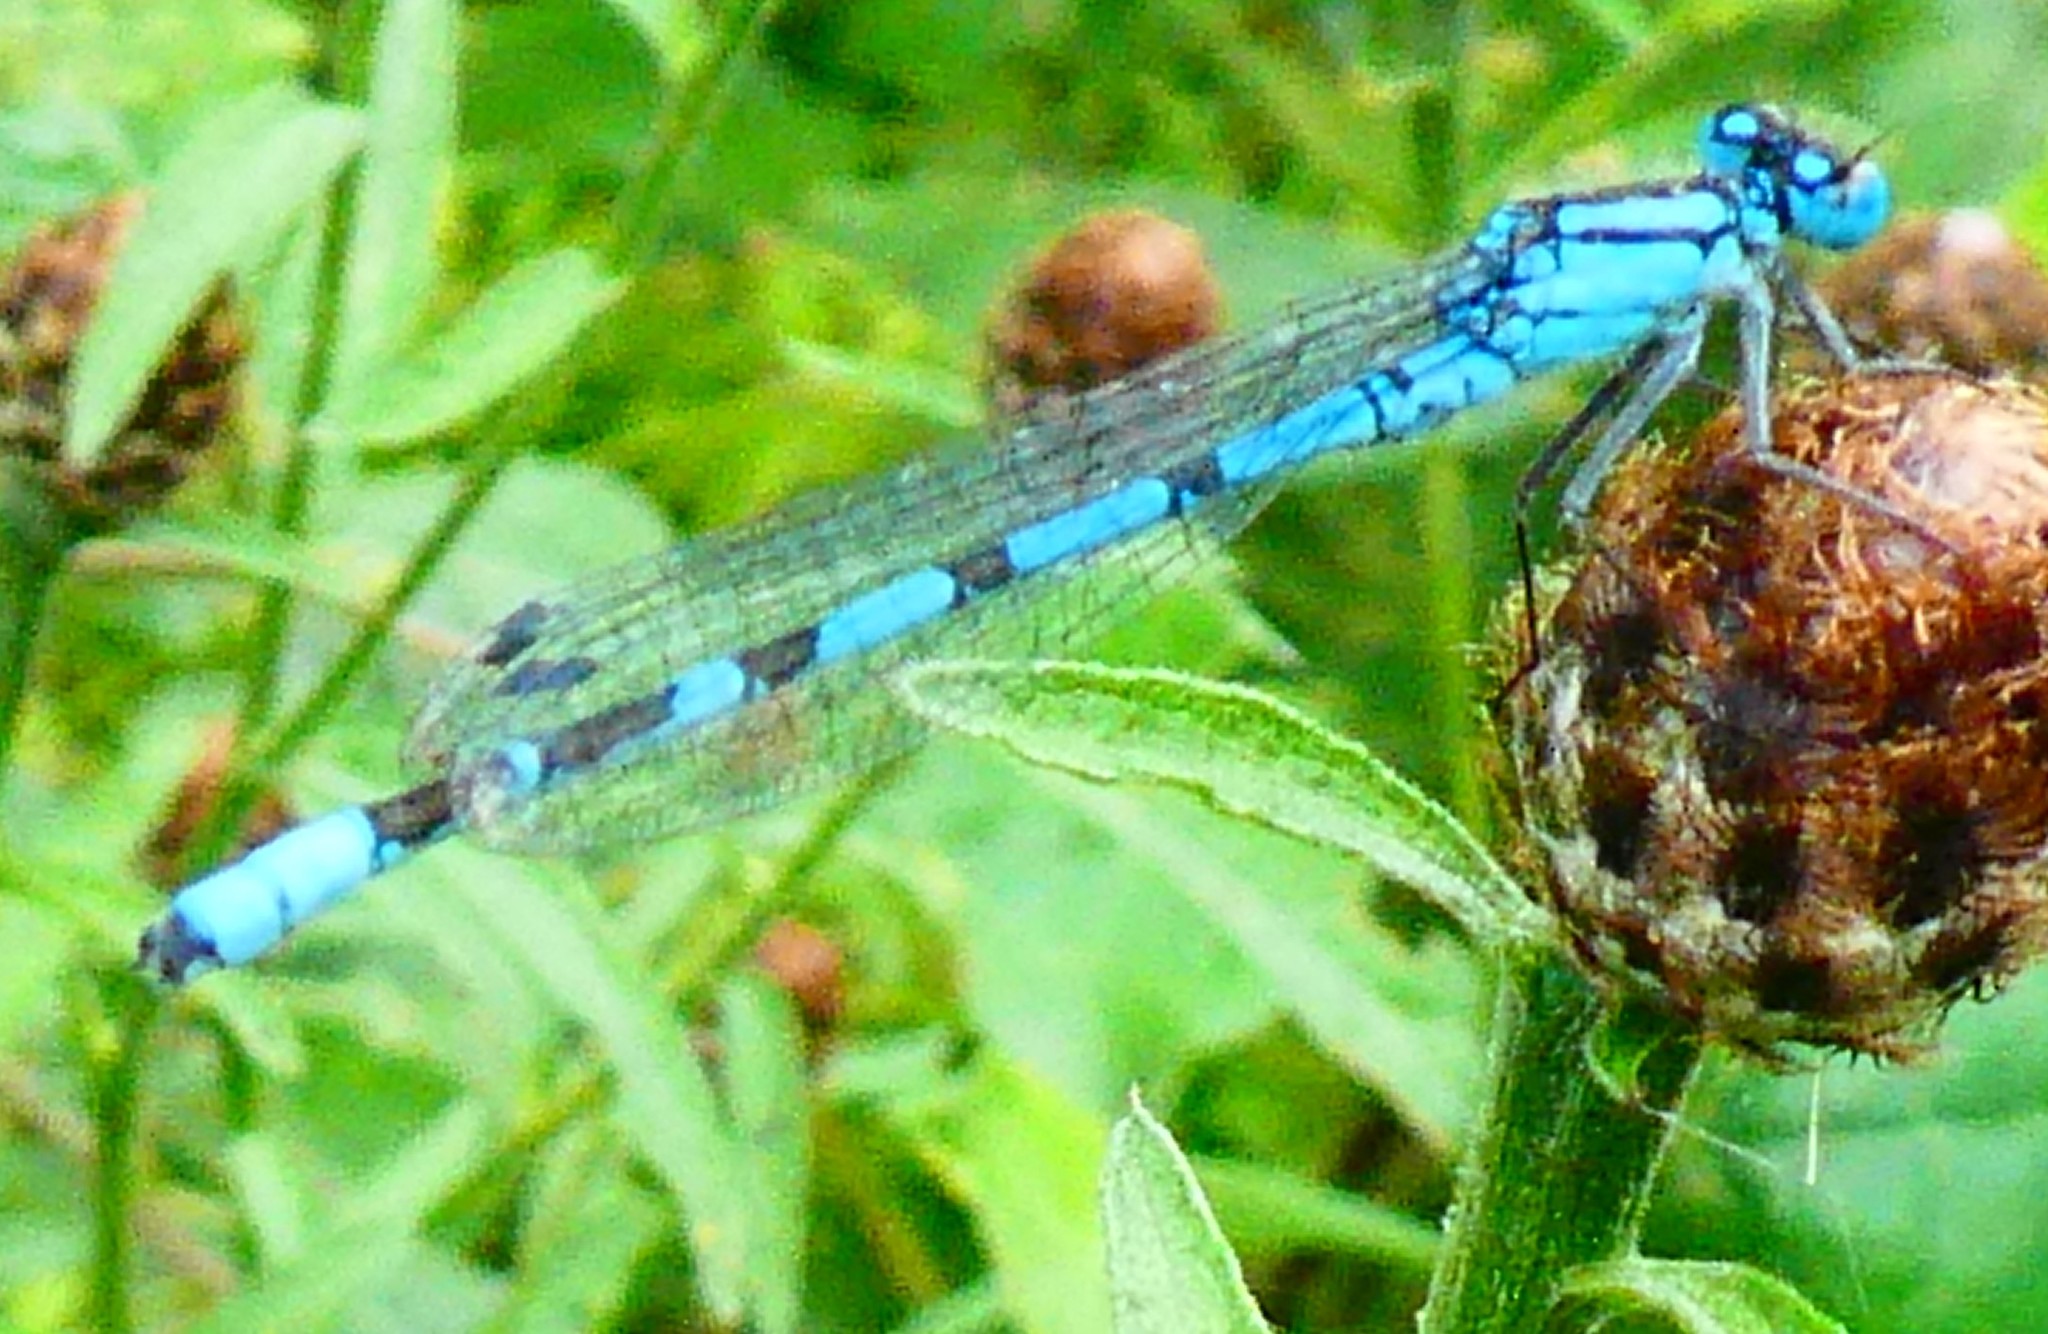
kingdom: Animalia
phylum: Arthropoda
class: Insecta
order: Odonata
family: Coenagrionidae
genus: Enallagma
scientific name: Enallagma cyathigerum
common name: Common blue damselfly
